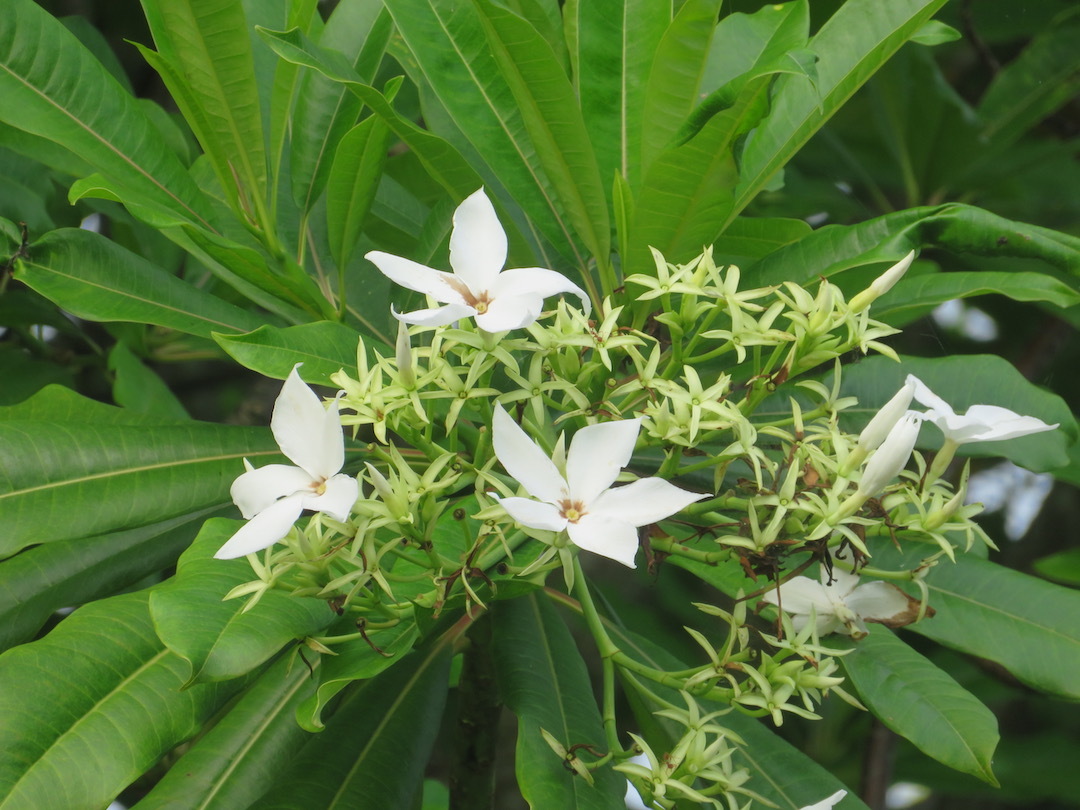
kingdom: Plantae
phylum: Tracheophyta
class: Magnoliopsida
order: Gentianales
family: Apocynaceae
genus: Cerbera
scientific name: Cerbera odollam
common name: Pong-pong
